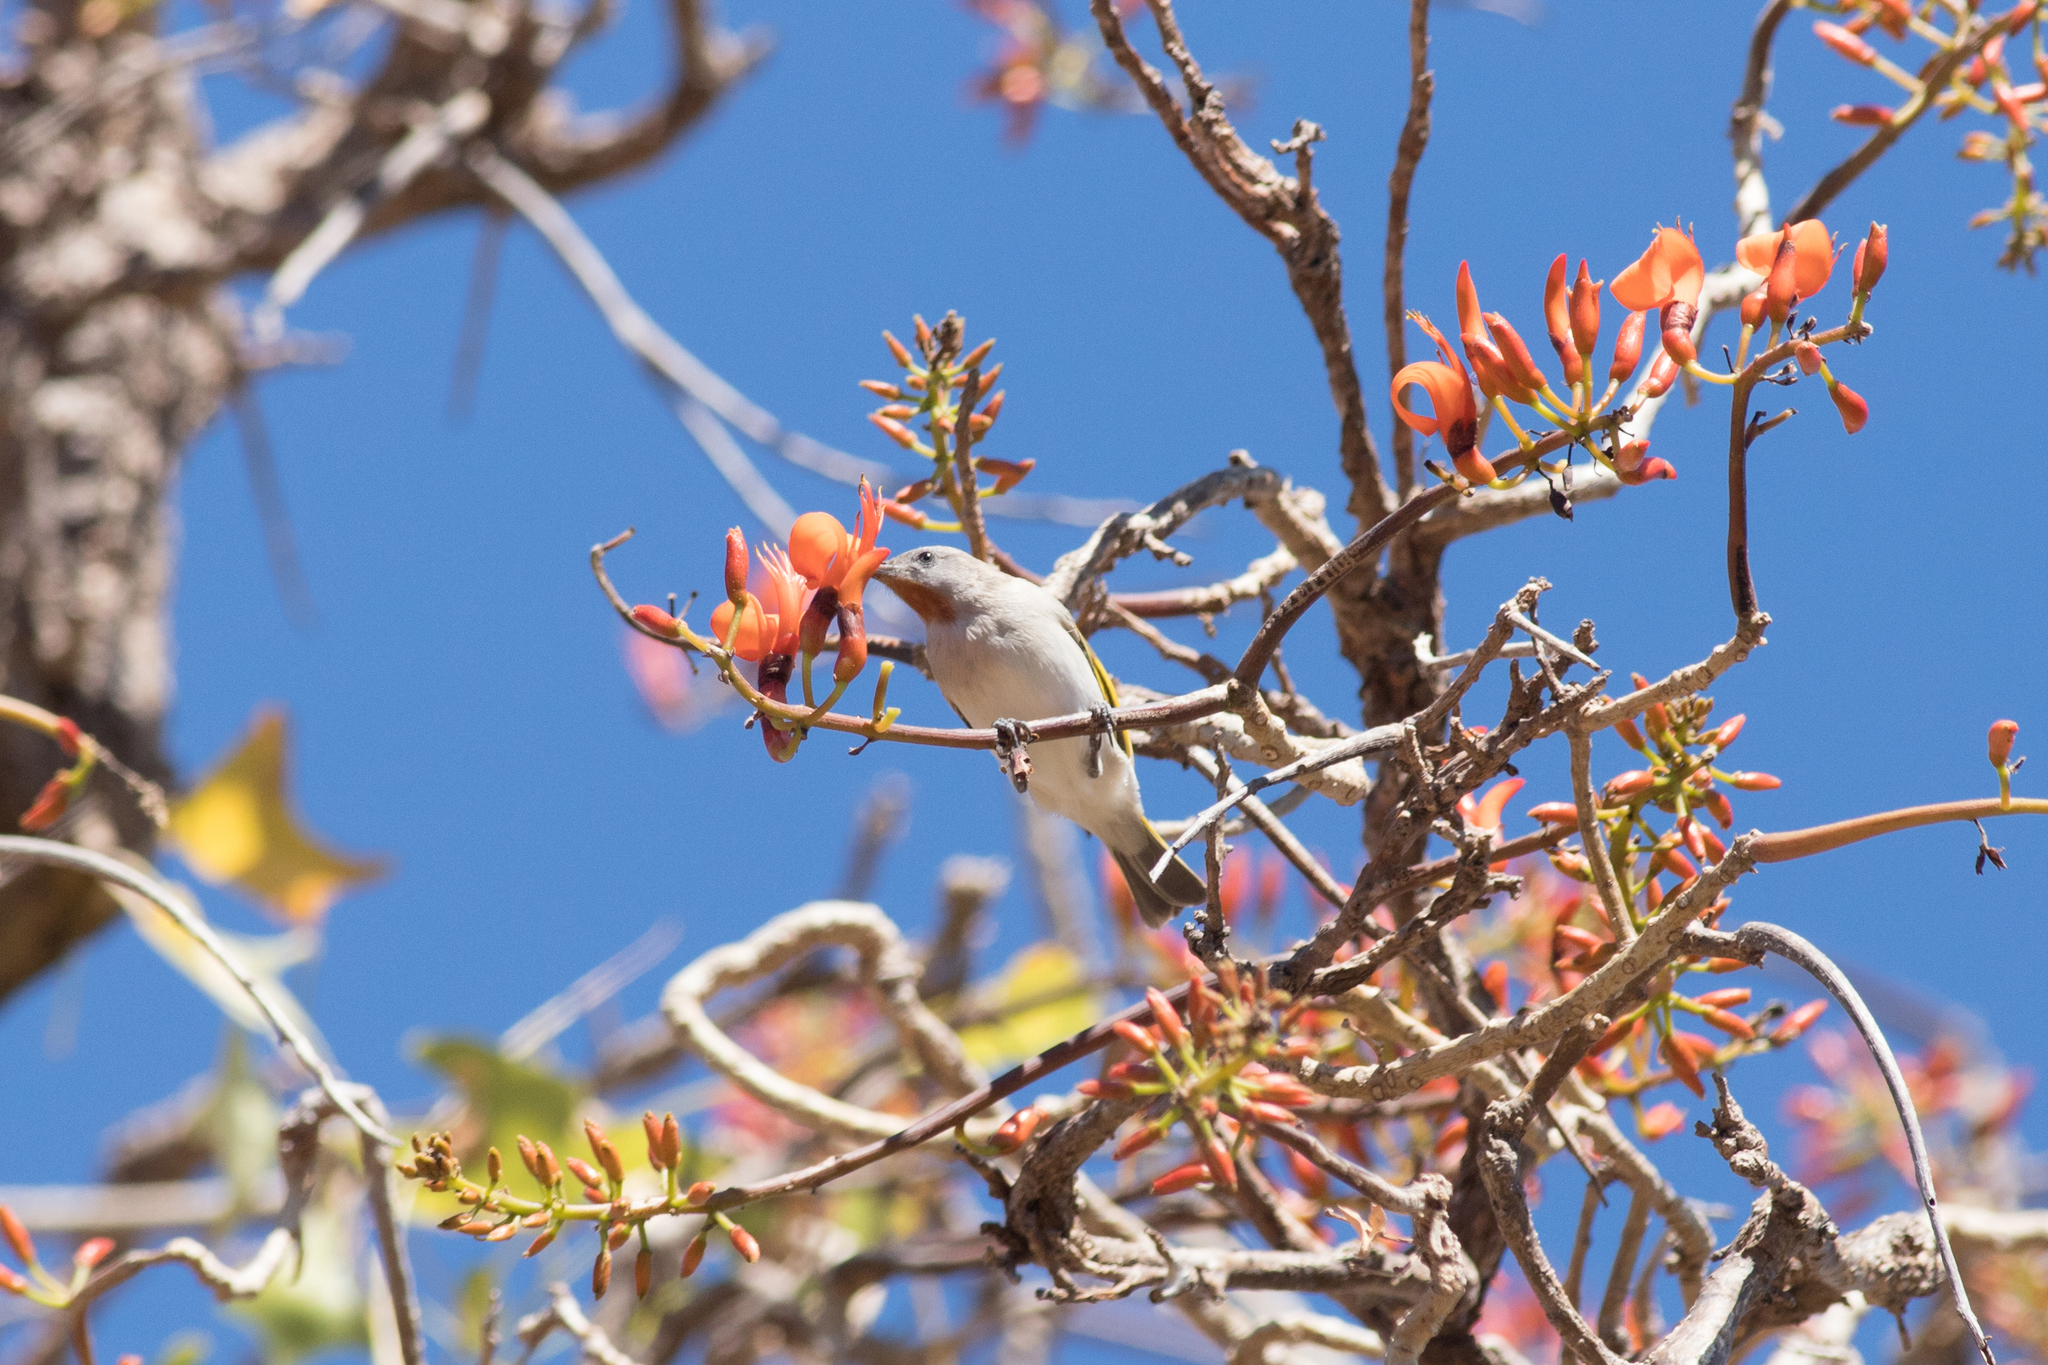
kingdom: Animalia
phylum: Chordata
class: Aves
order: Passeriformes
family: Meliphagidae
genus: Conopophila
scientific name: Conopophila rufogularis
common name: Rufous-throated honeyeater
